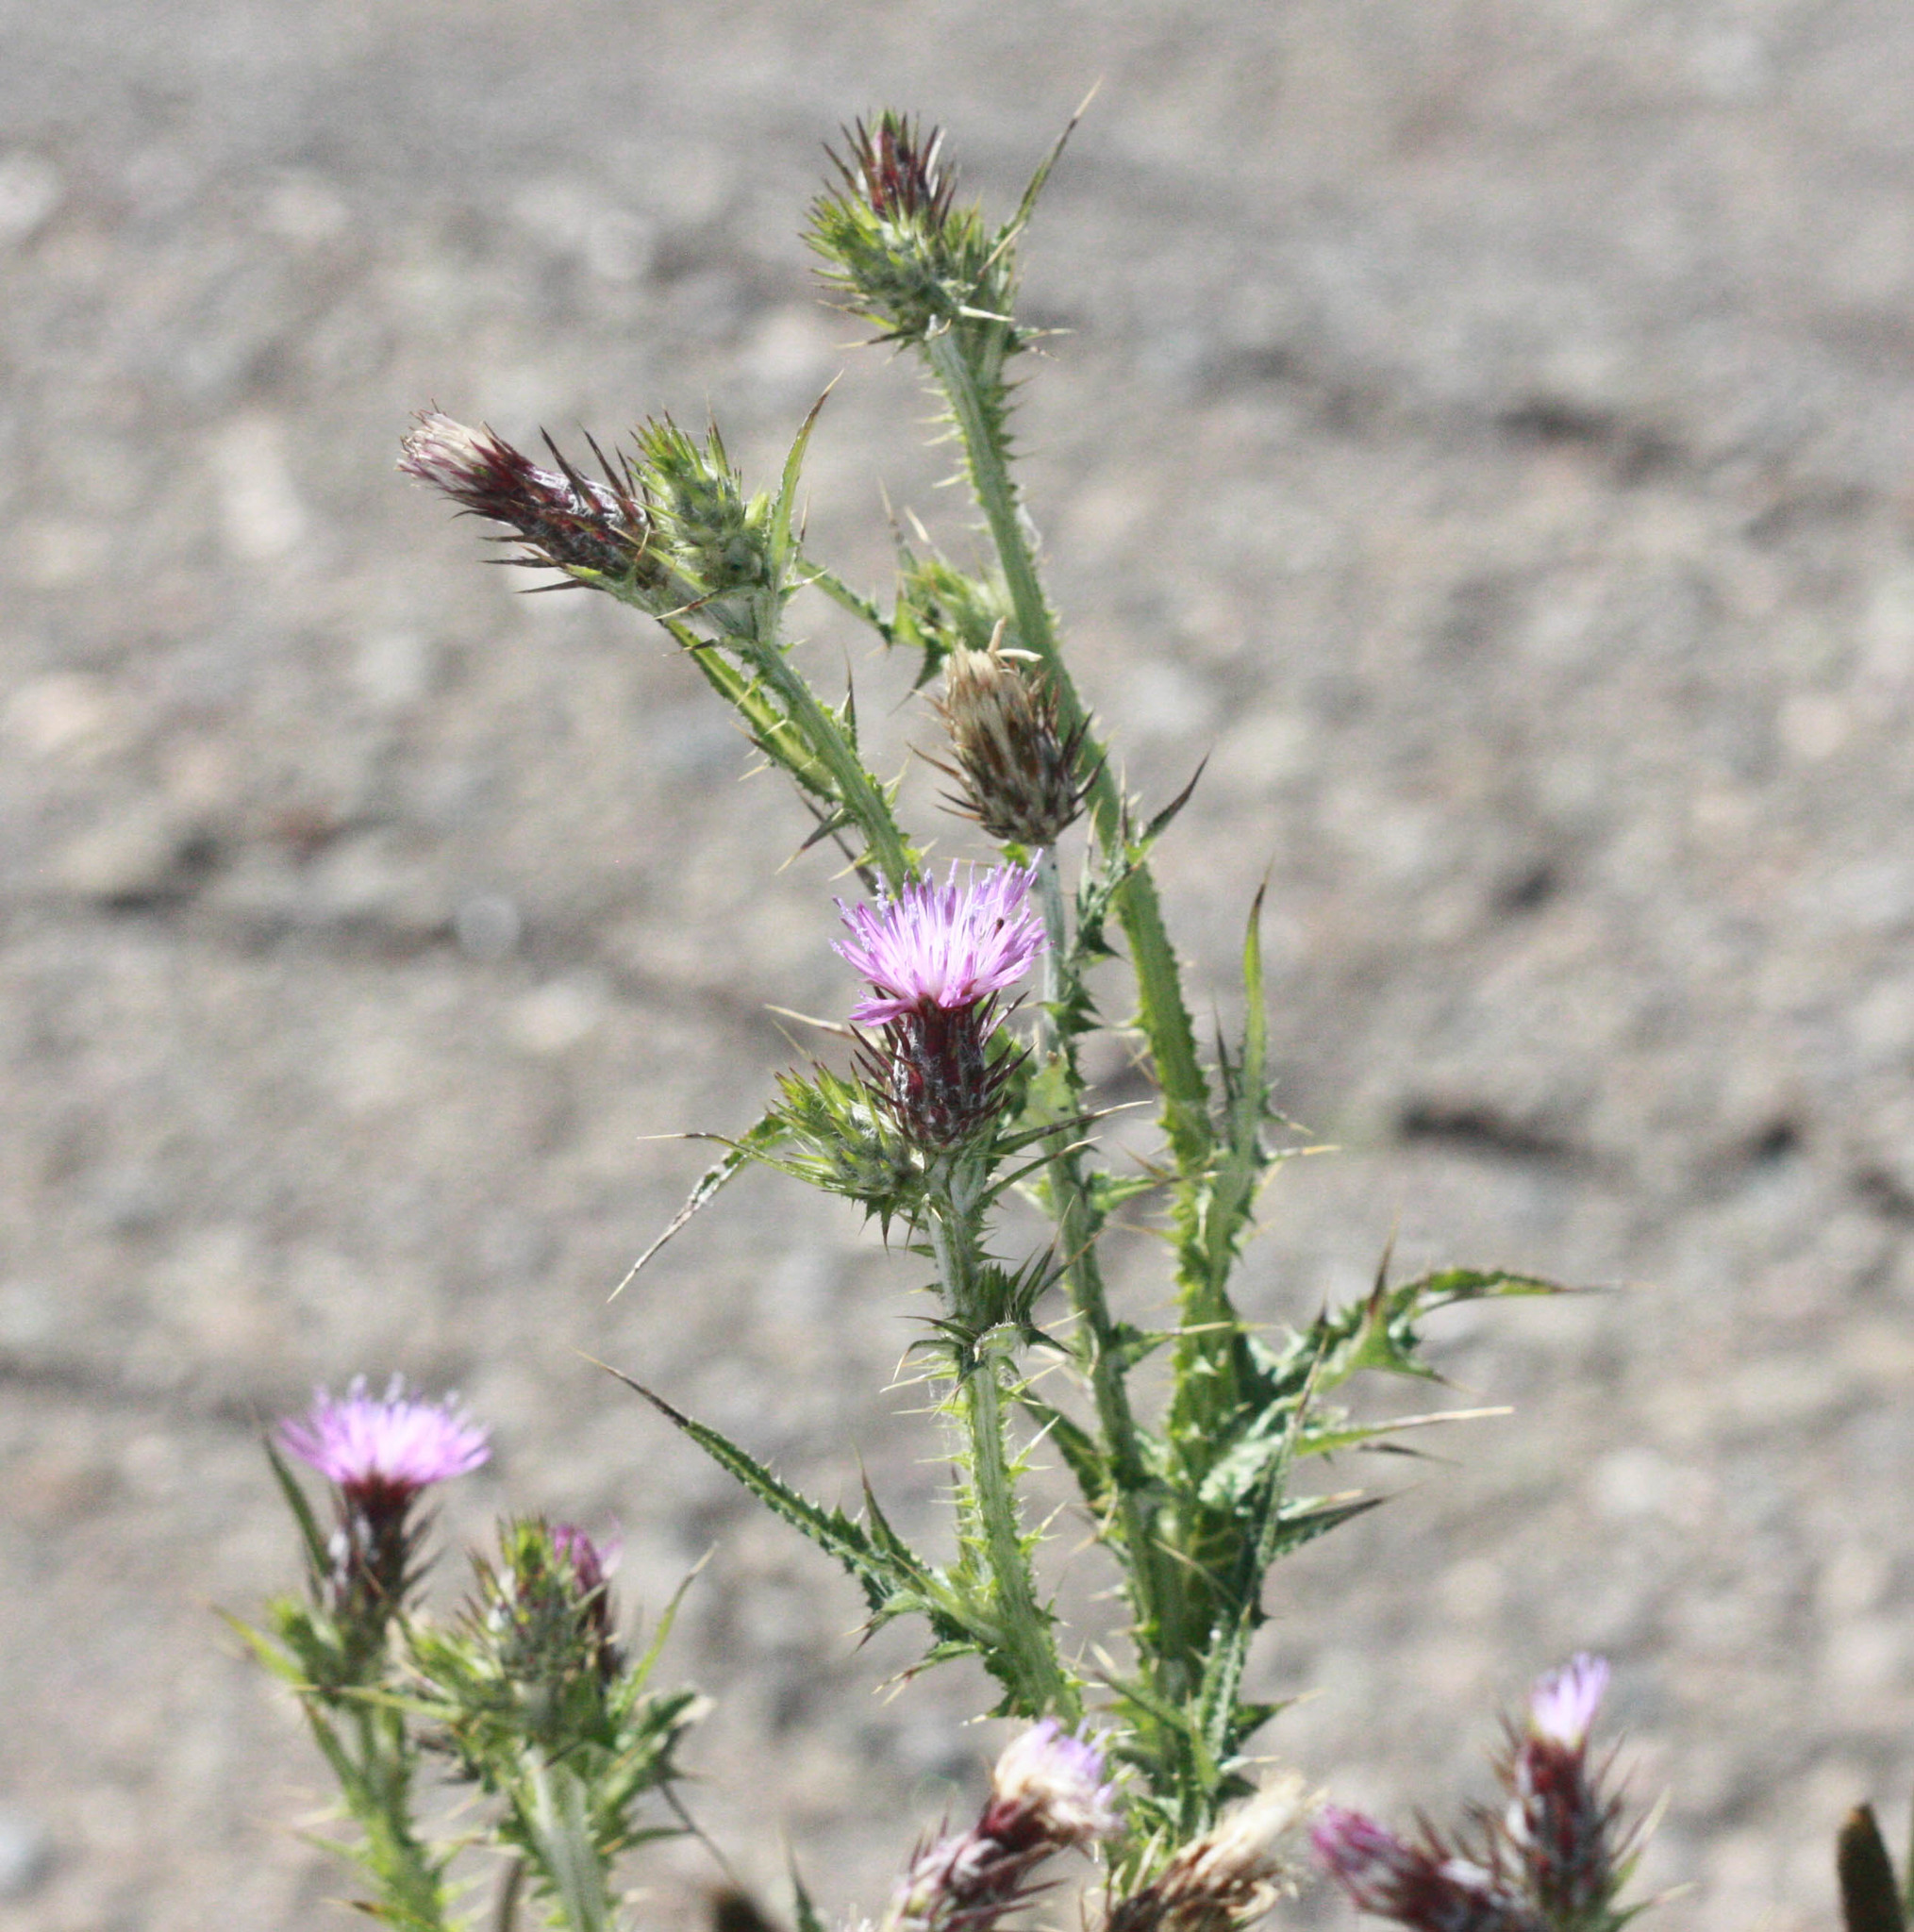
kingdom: Plantae
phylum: Tracheophyta
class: Magnoliopsida
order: Asterales
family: Asteraceae
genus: Carduus
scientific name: Carduus pycnocephalus
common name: Plymouth thistle
